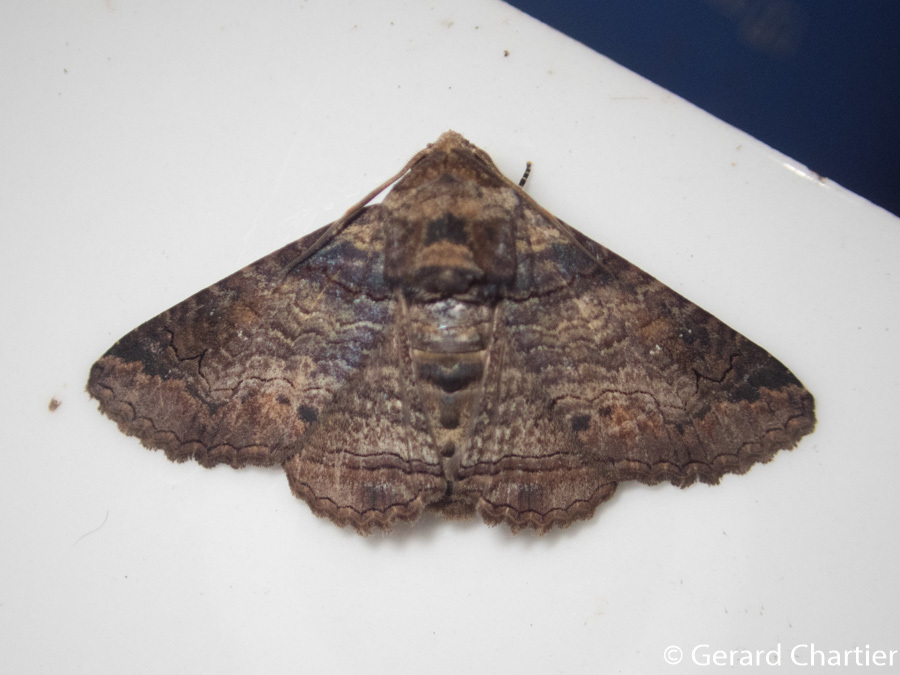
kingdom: Animalia
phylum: Arthropoda
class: Insecta
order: Lepidoptera
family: Erebidae
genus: Pericyma
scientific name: Pericyma cruegeri
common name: Poinciana looper
